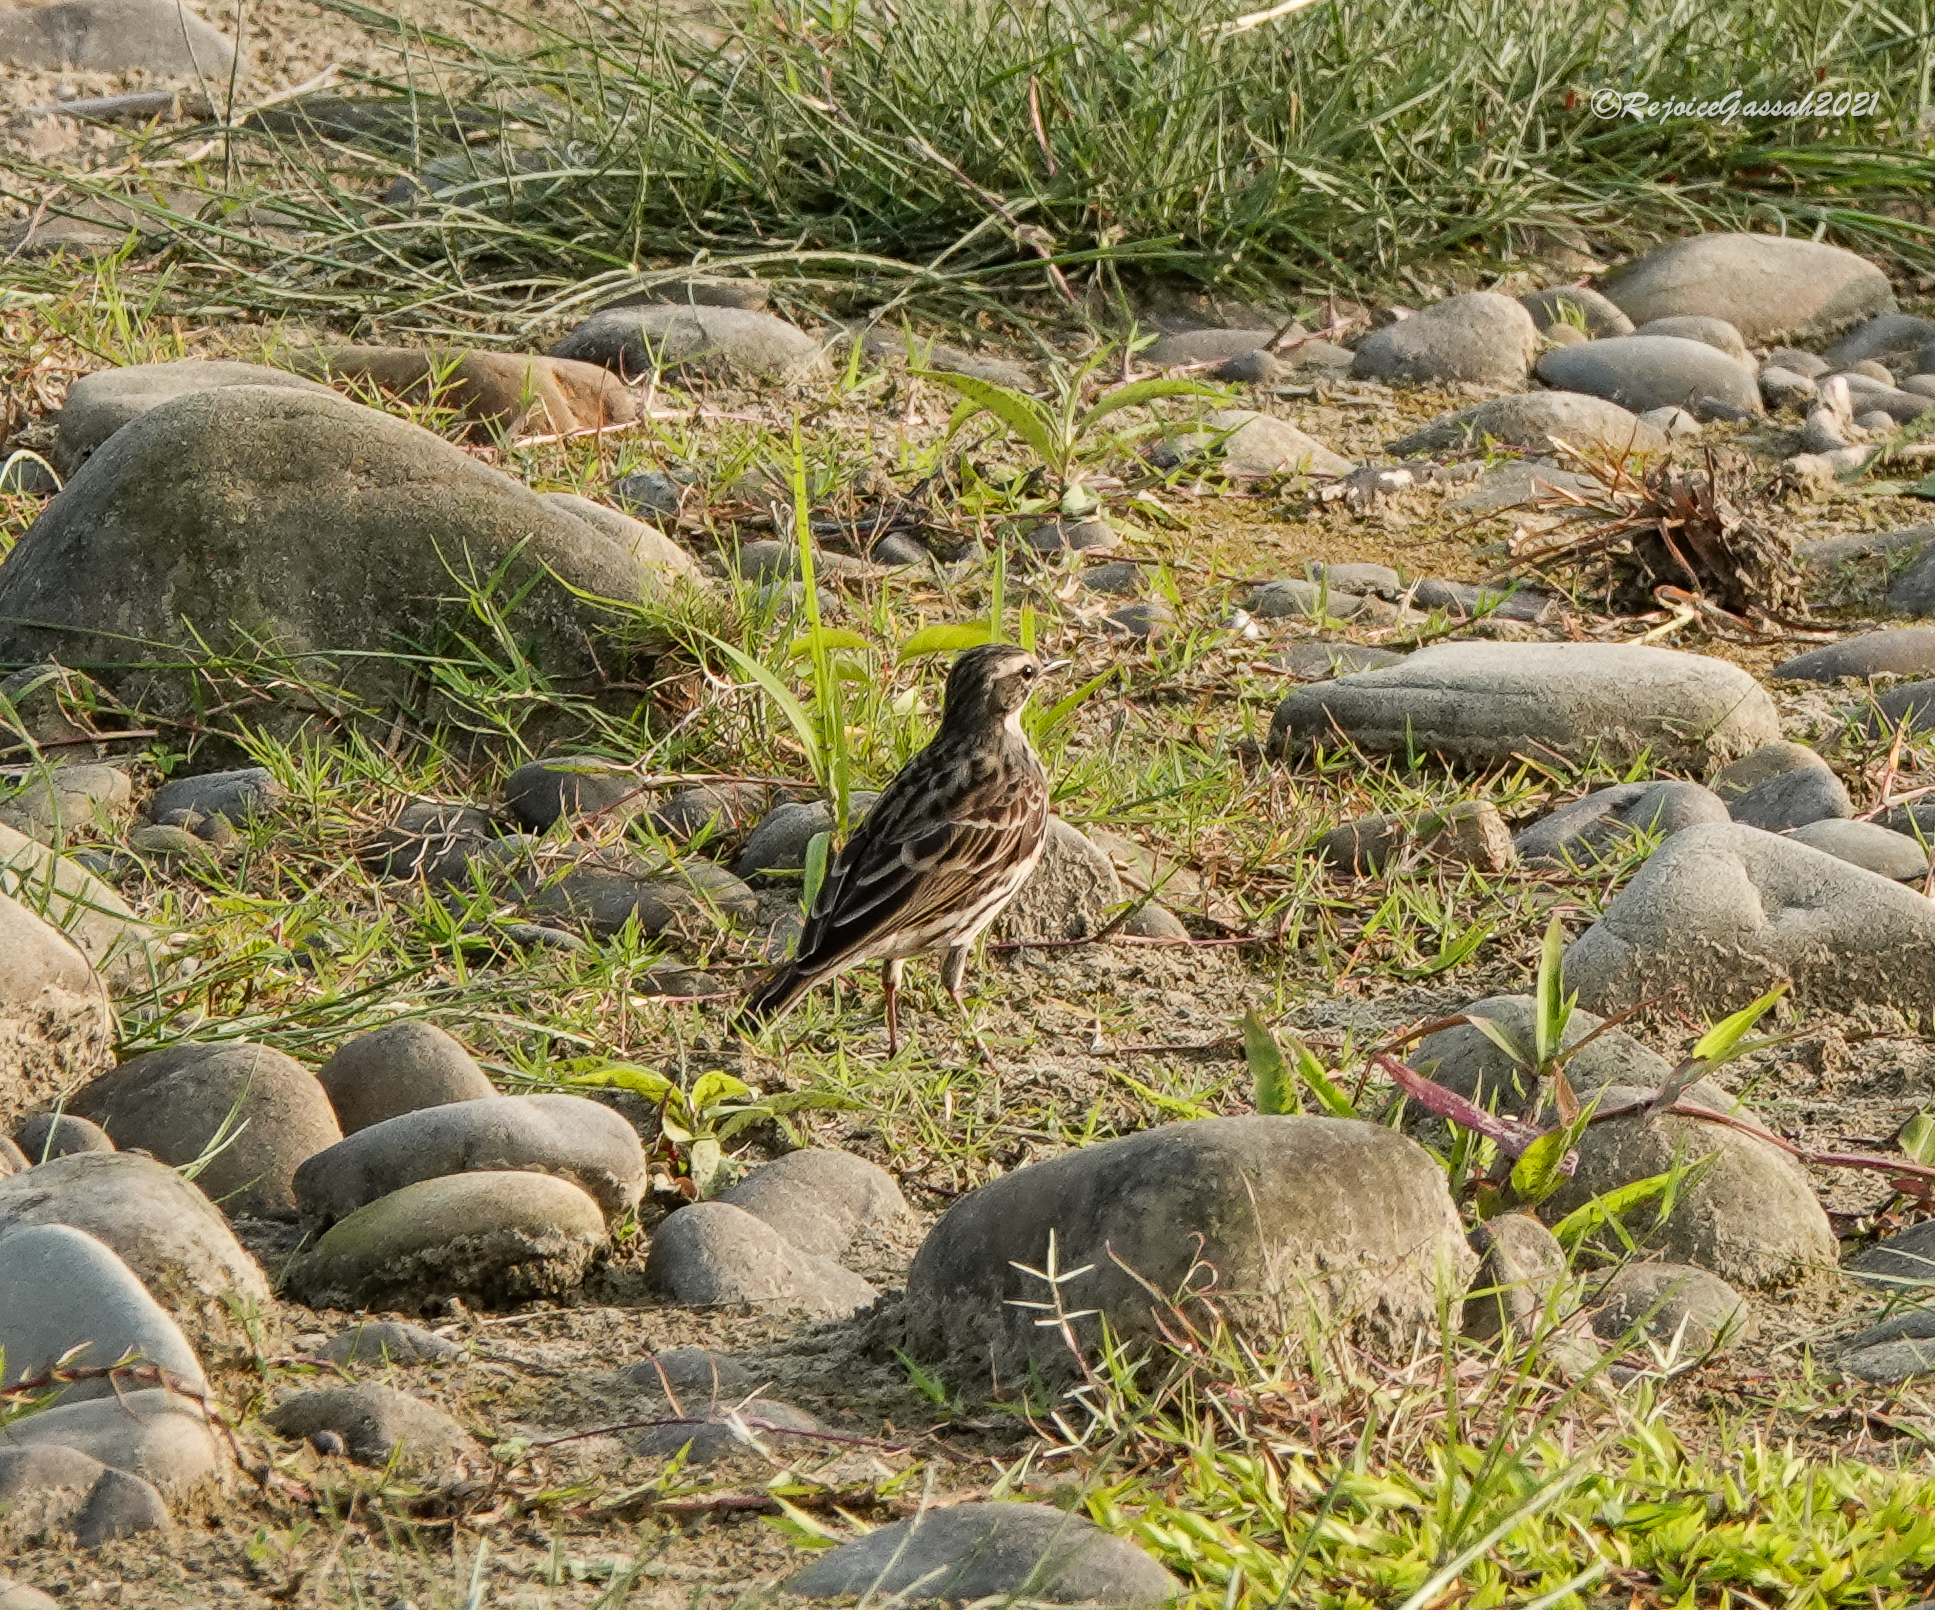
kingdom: Animalia
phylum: Chordata
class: Aves
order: Passeriformes
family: Motacillidae
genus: Anthus
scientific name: Anthus roseatus
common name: Rosy pipit
